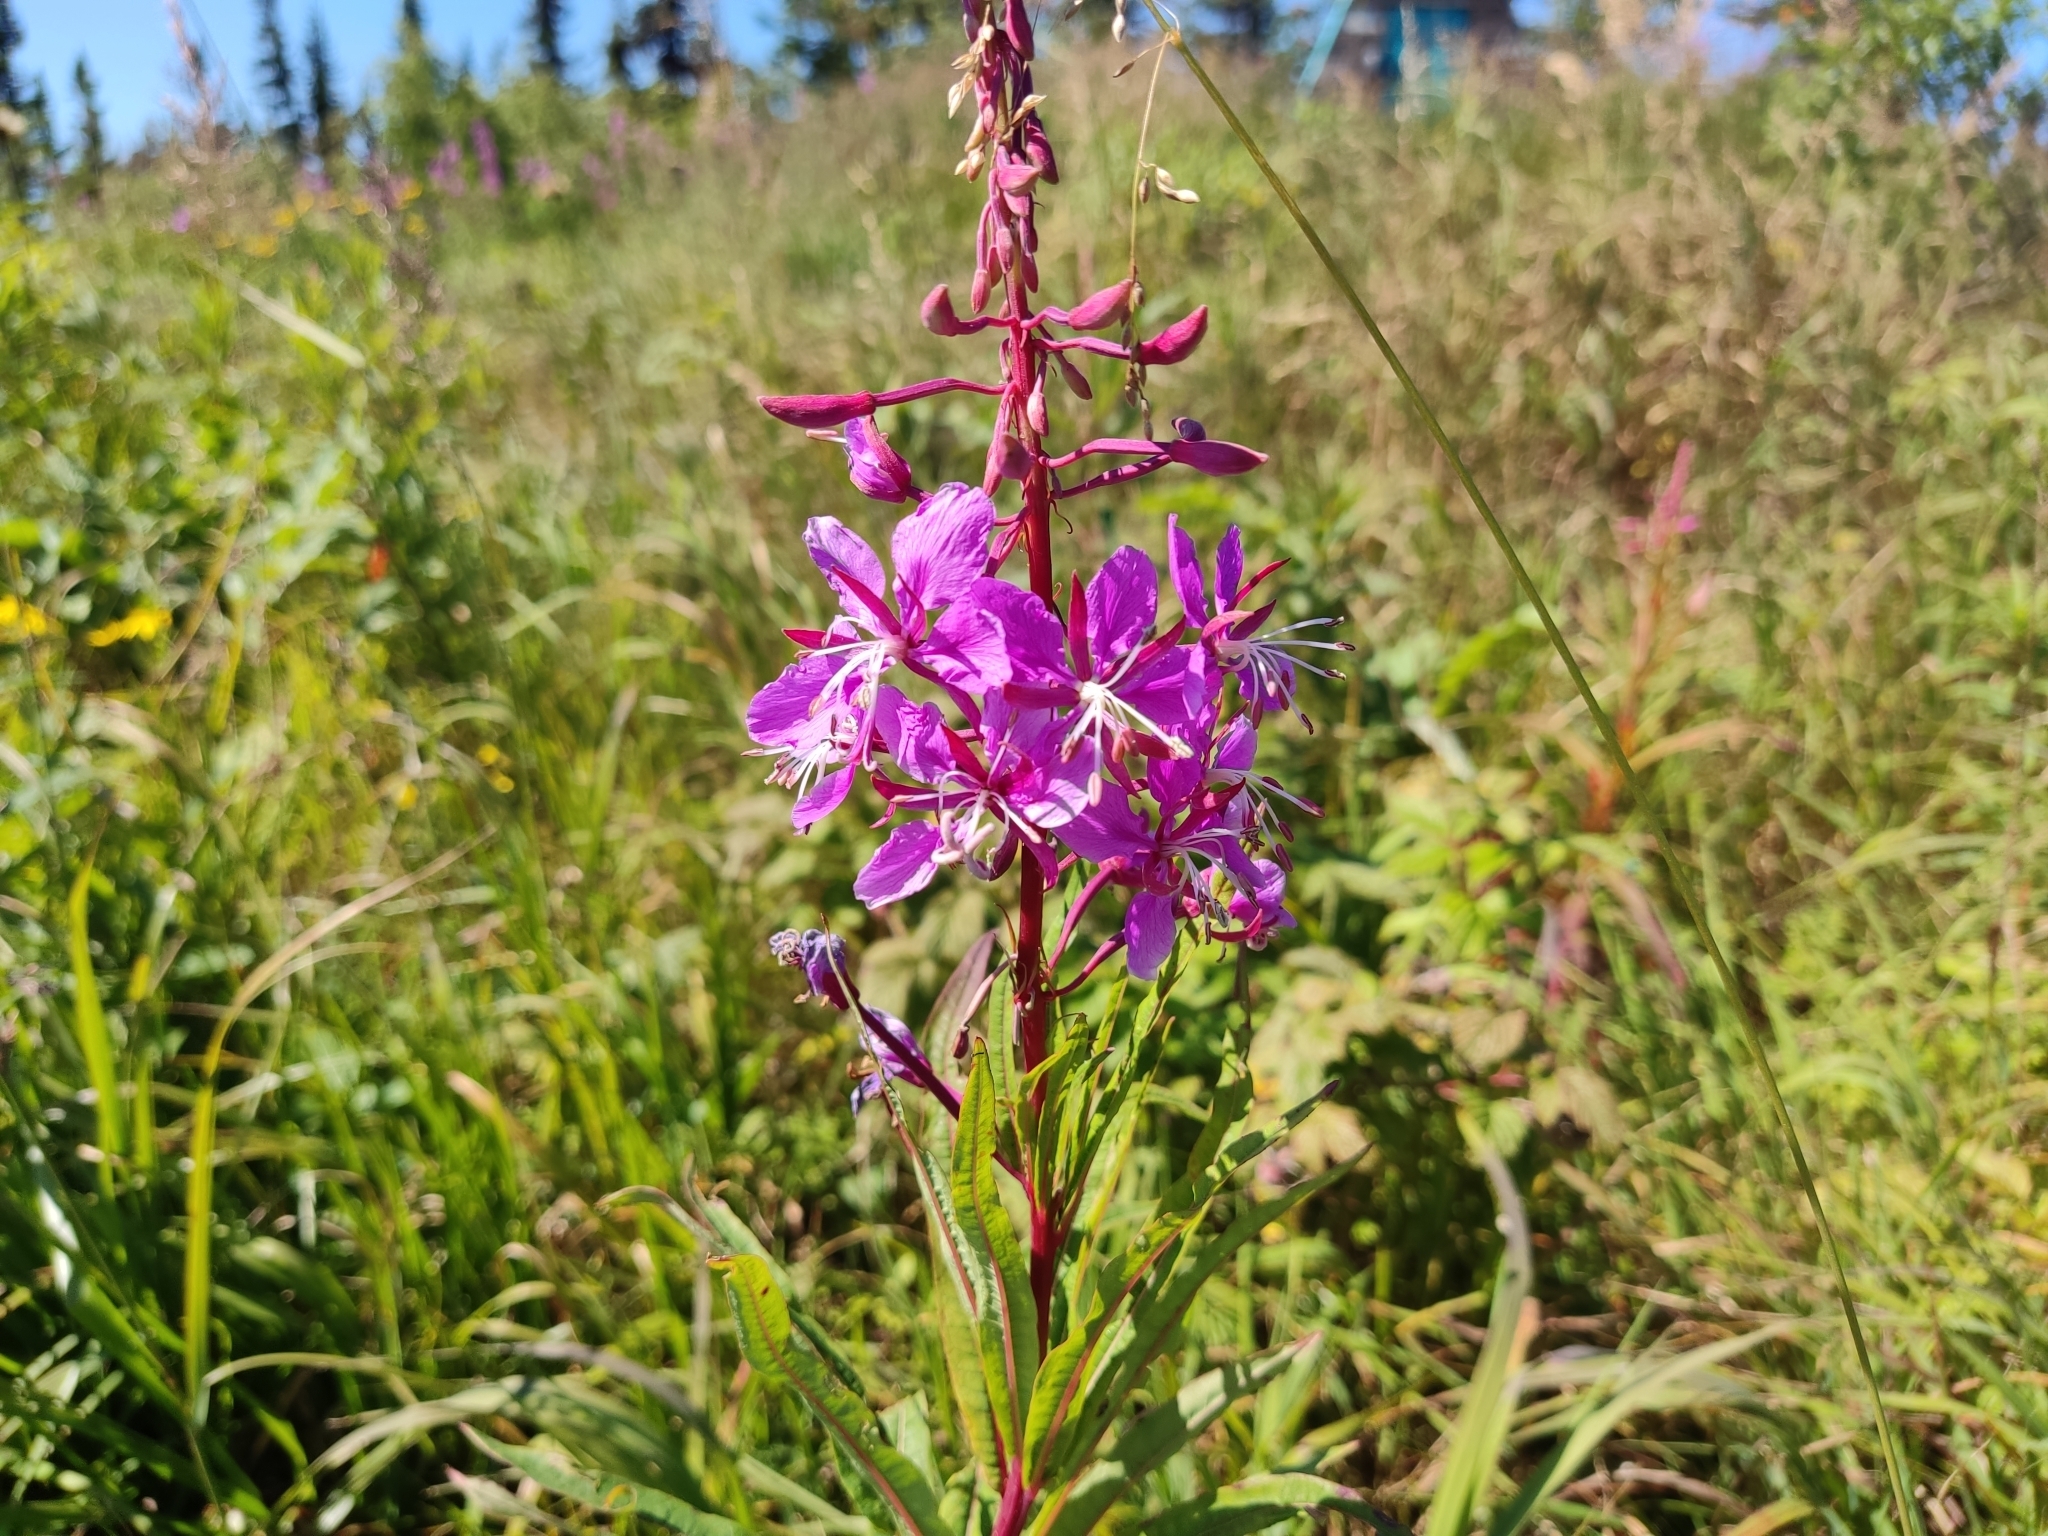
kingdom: Plantae
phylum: Tracheophyta
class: Magnoliopsida
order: Myrtales
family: Onagraceae
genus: Chamaenerion
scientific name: Chamaenerion angustifolium
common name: Fireweed
